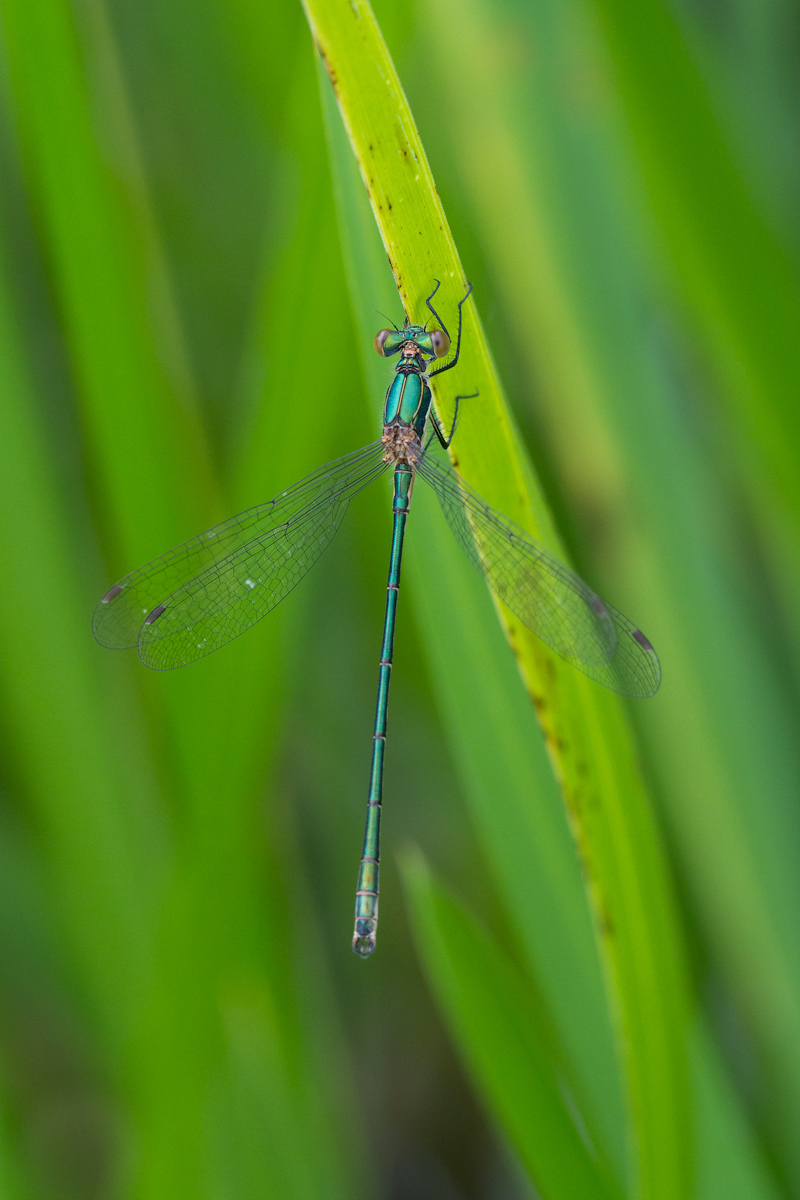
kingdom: Animalia
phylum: Arthropoda
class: Insecta
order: Odonata
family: Lestidae
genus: Lestes
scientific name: Lestes sponsa
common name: Common spreadwing
